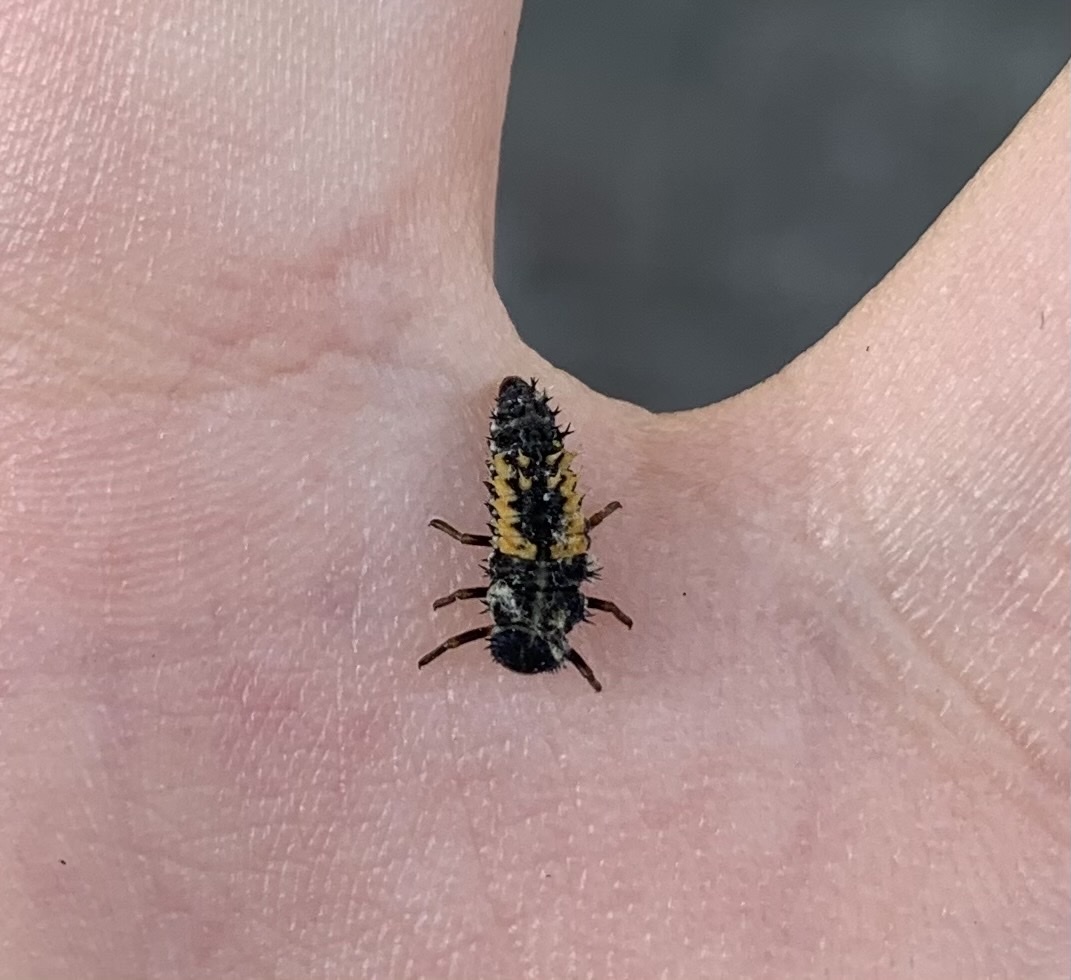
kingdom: Animalia
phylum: Arthropoda
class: Insecta
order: Coleoptera
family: Coccinellidae
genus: Harmonia
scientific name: Harmonia axyridis
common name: Harlequin ladybird
